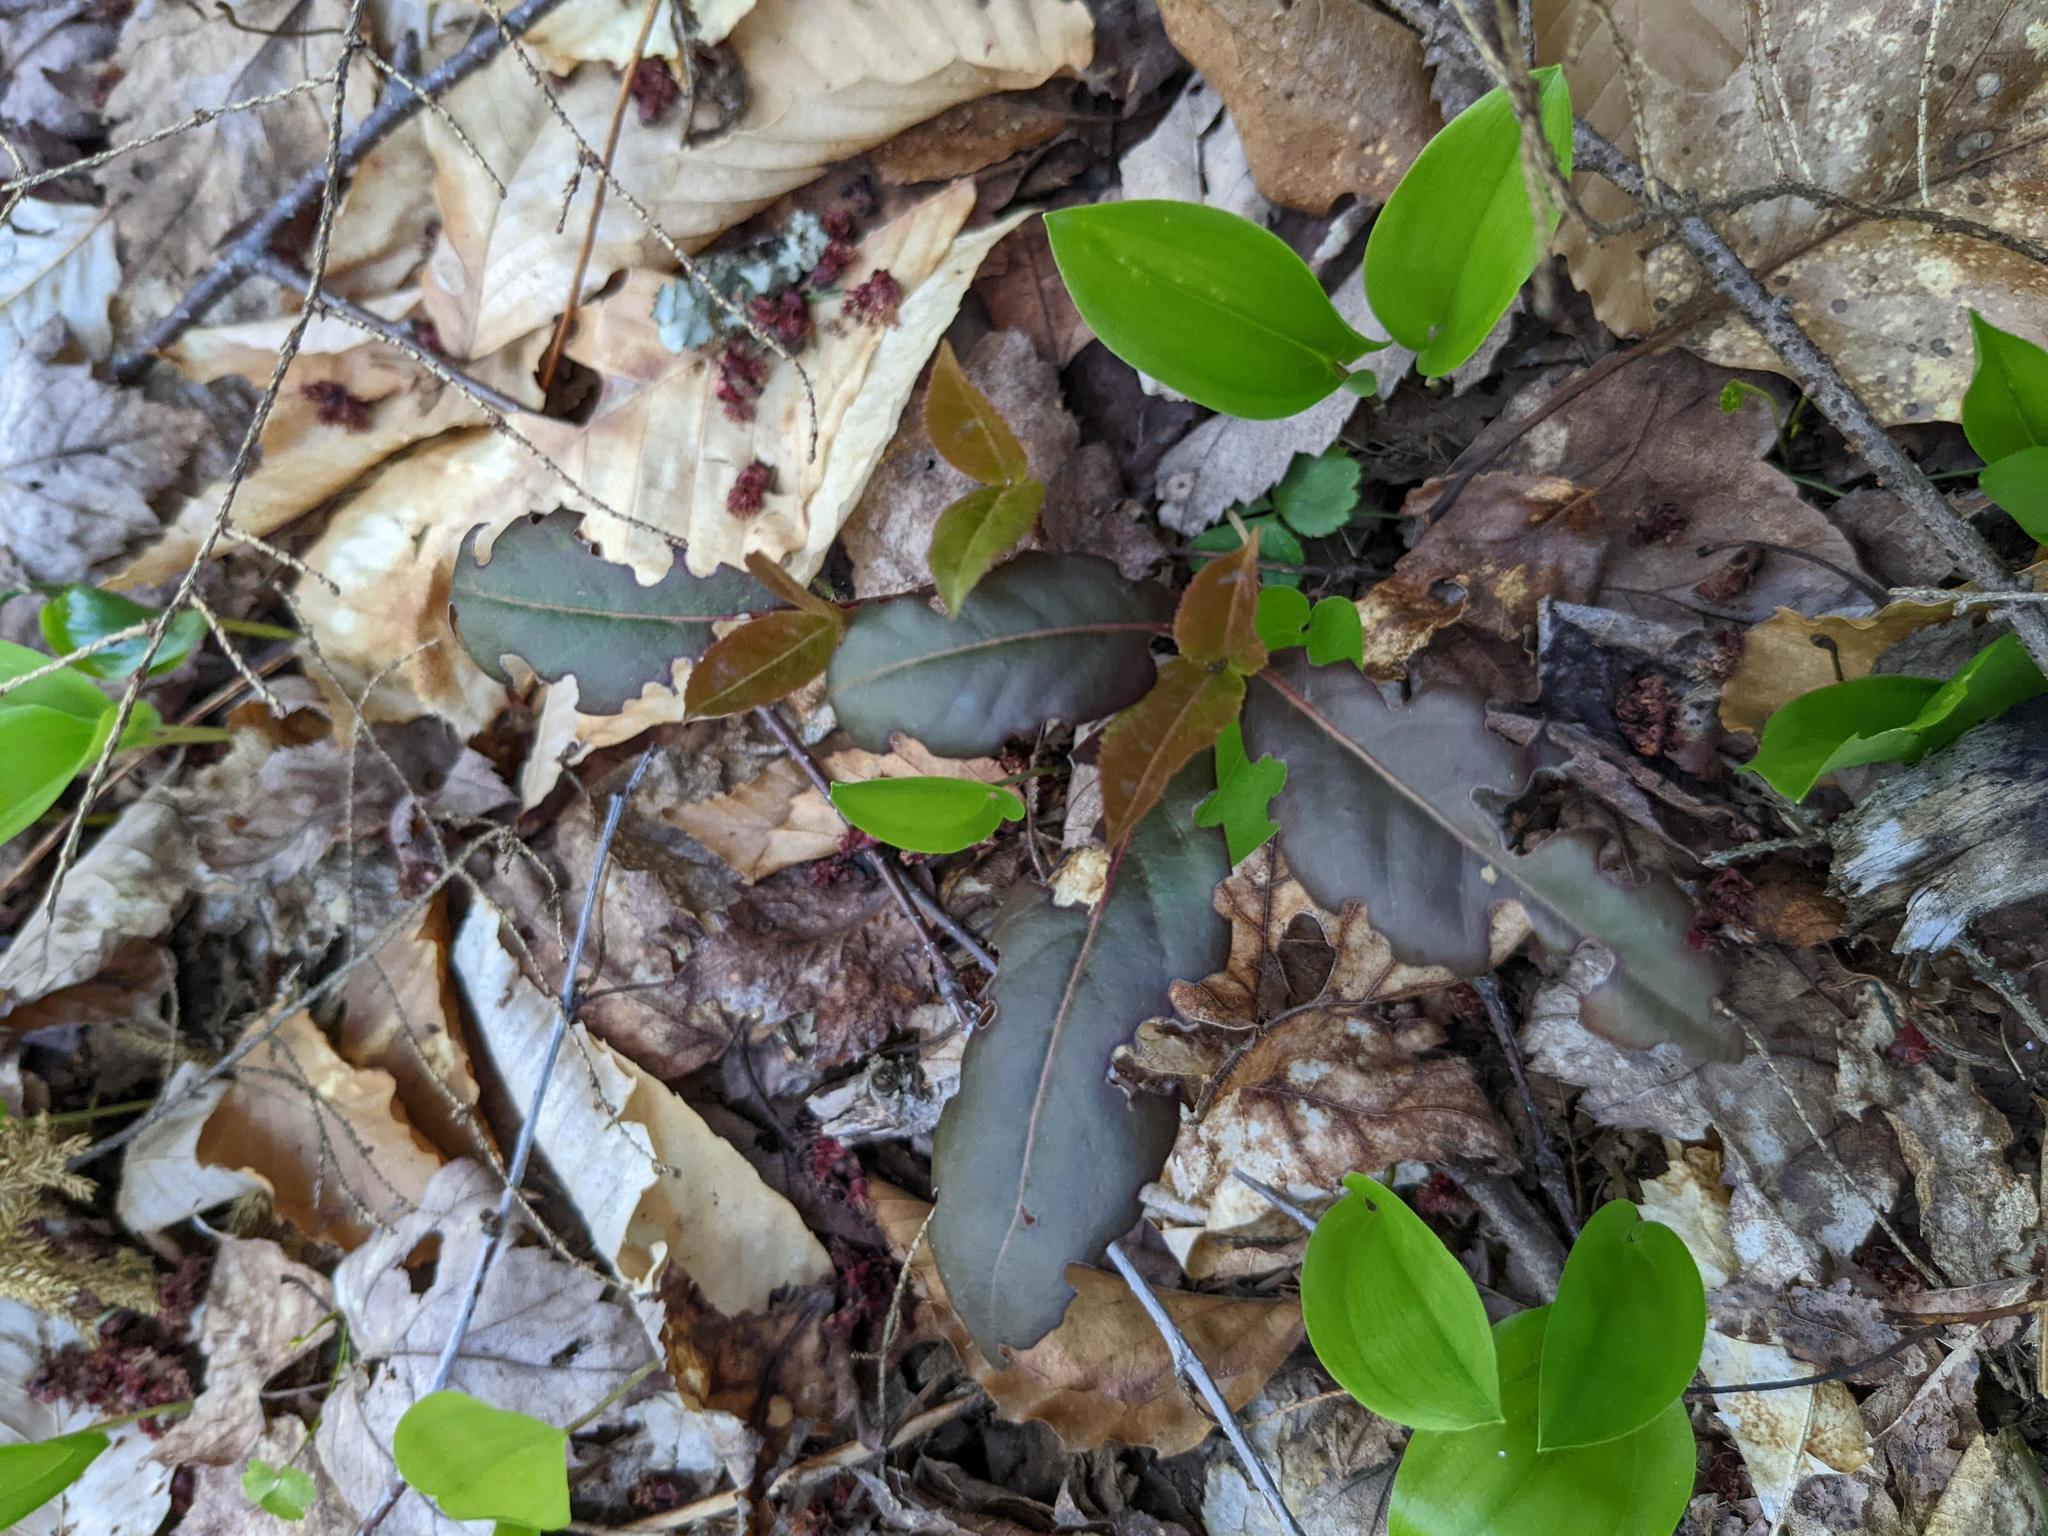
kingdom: Plantae
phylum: Tracheophyta
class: Liliopsida
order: Asparagales
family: Asparagaceae
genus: Maianthemum
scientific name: Maianthemum canadense
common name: False lily-of-the-valley
